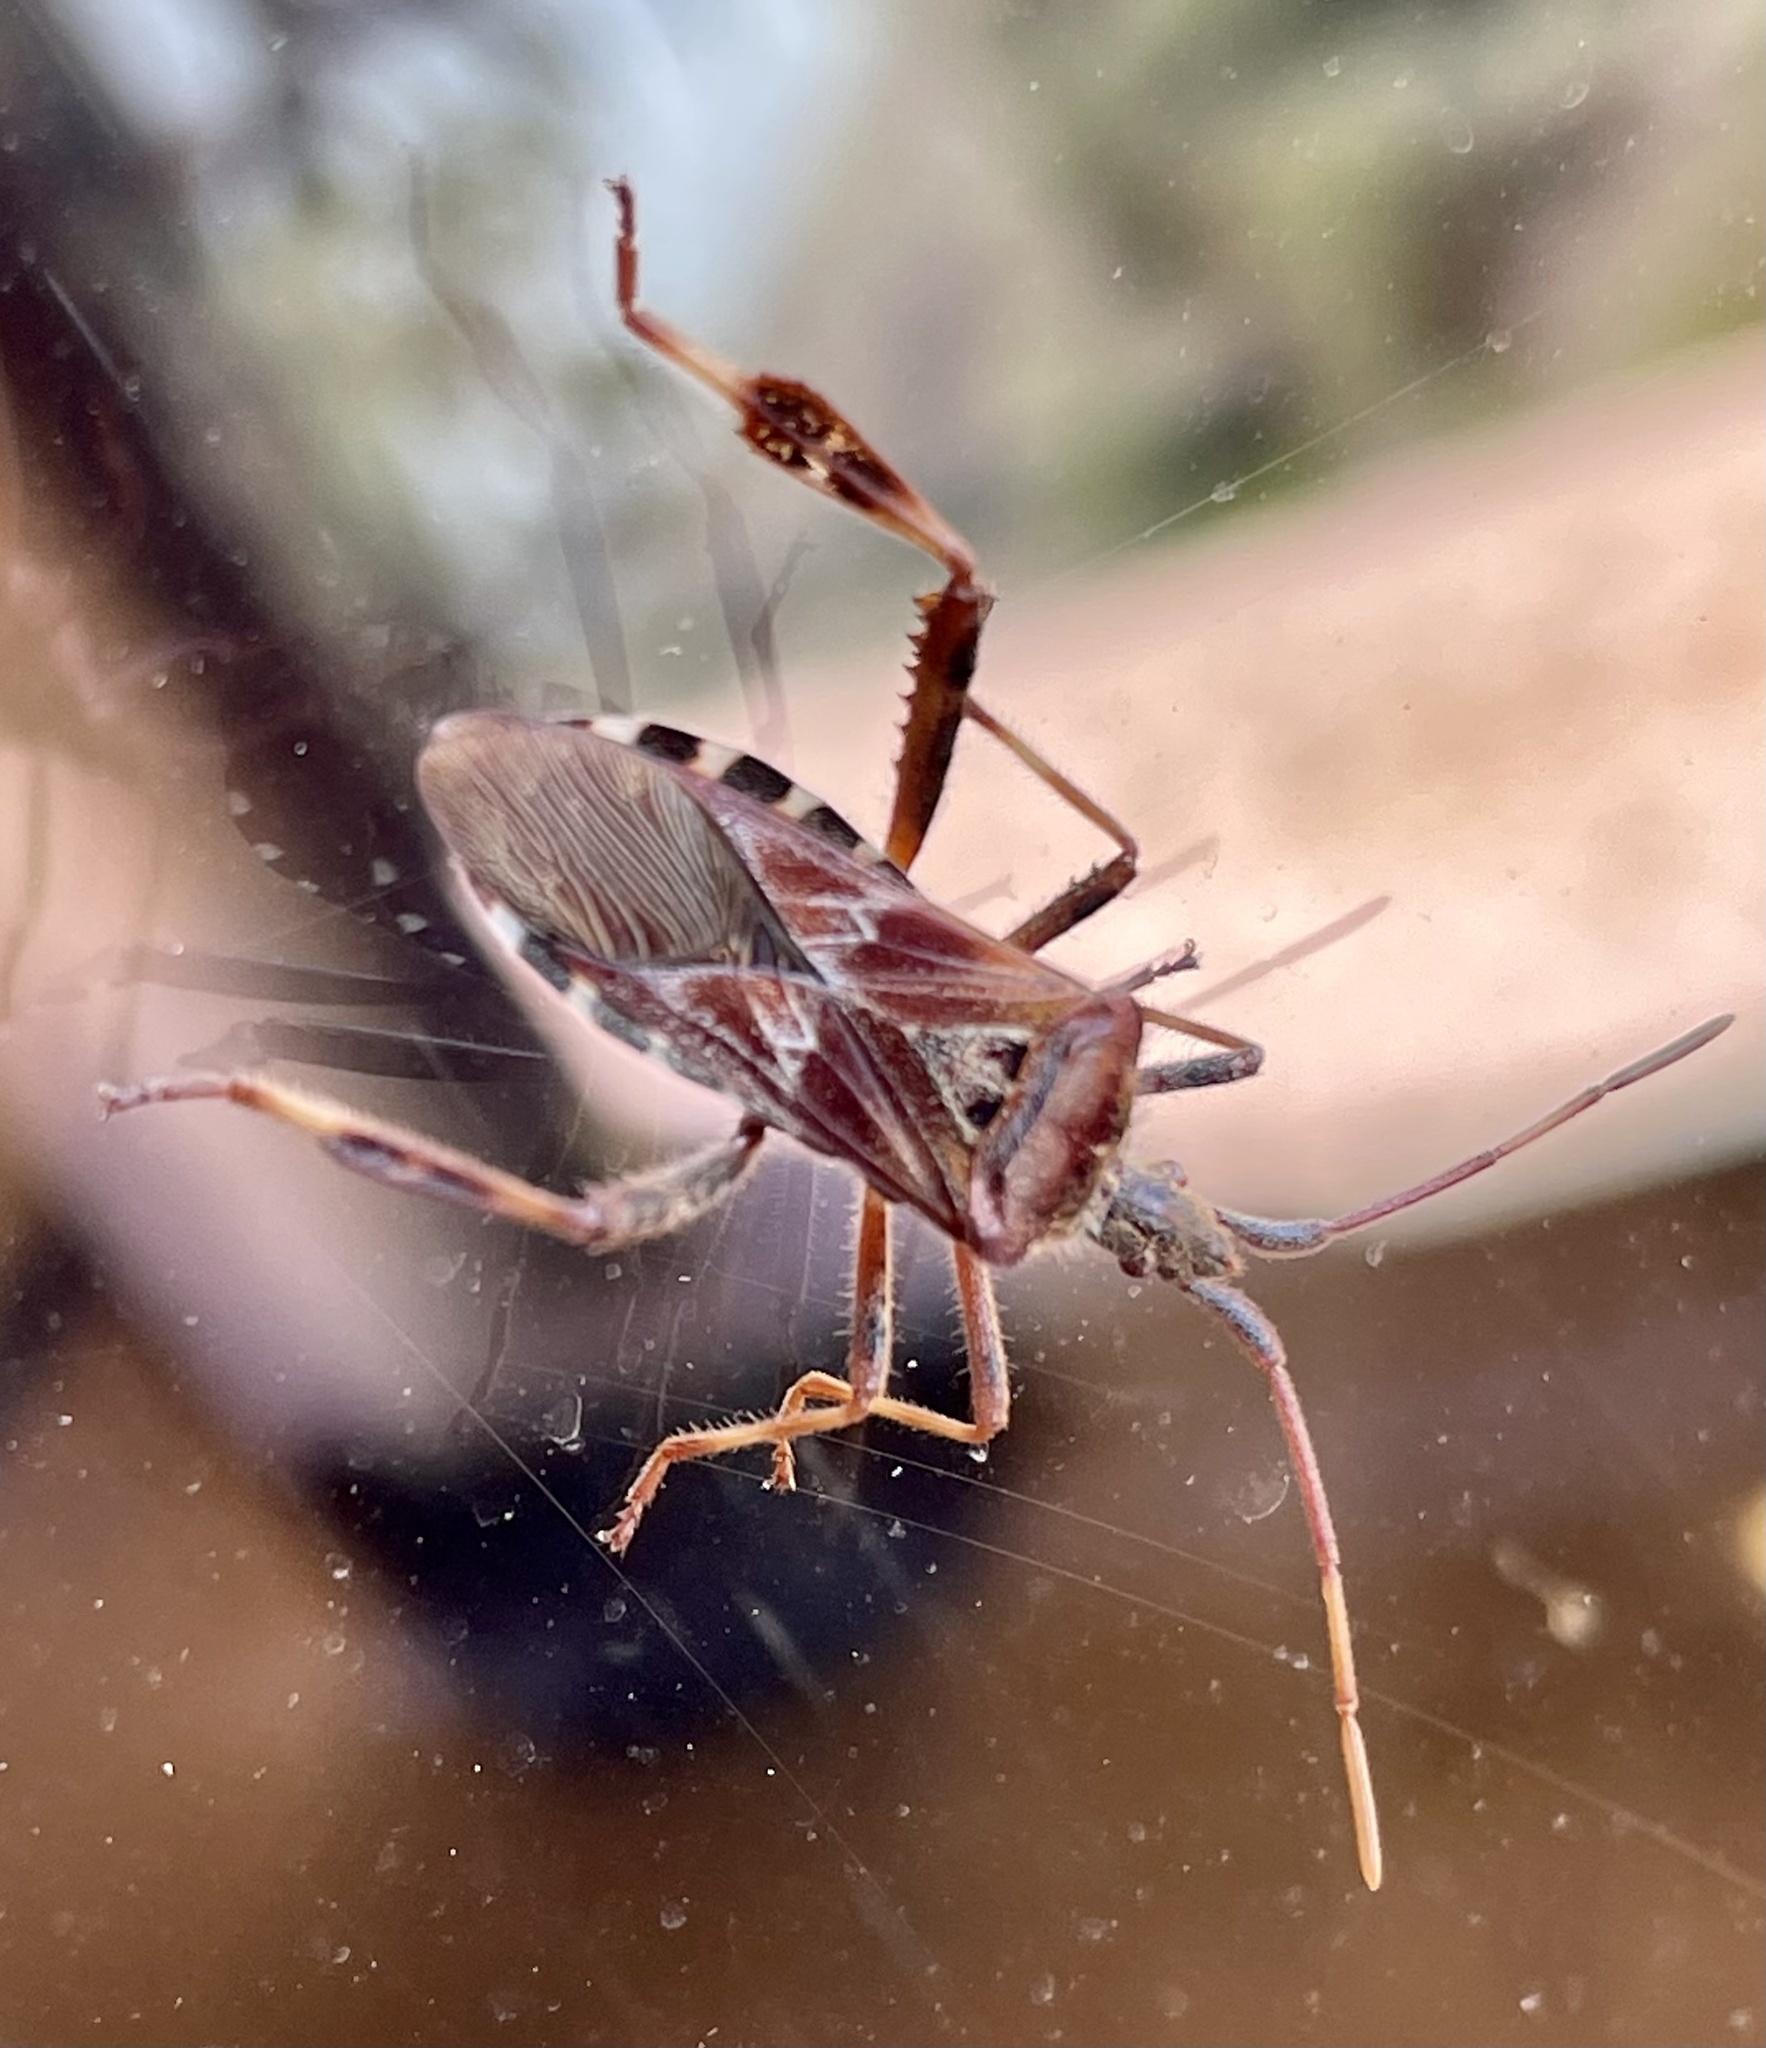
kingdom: Animalia
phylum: Arthropoda
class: Insecta
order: Hemiptera
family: Coreidae
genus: Leptoglossus
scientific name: Leptoglossus occidentalis
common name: Western conifer-seed bug
